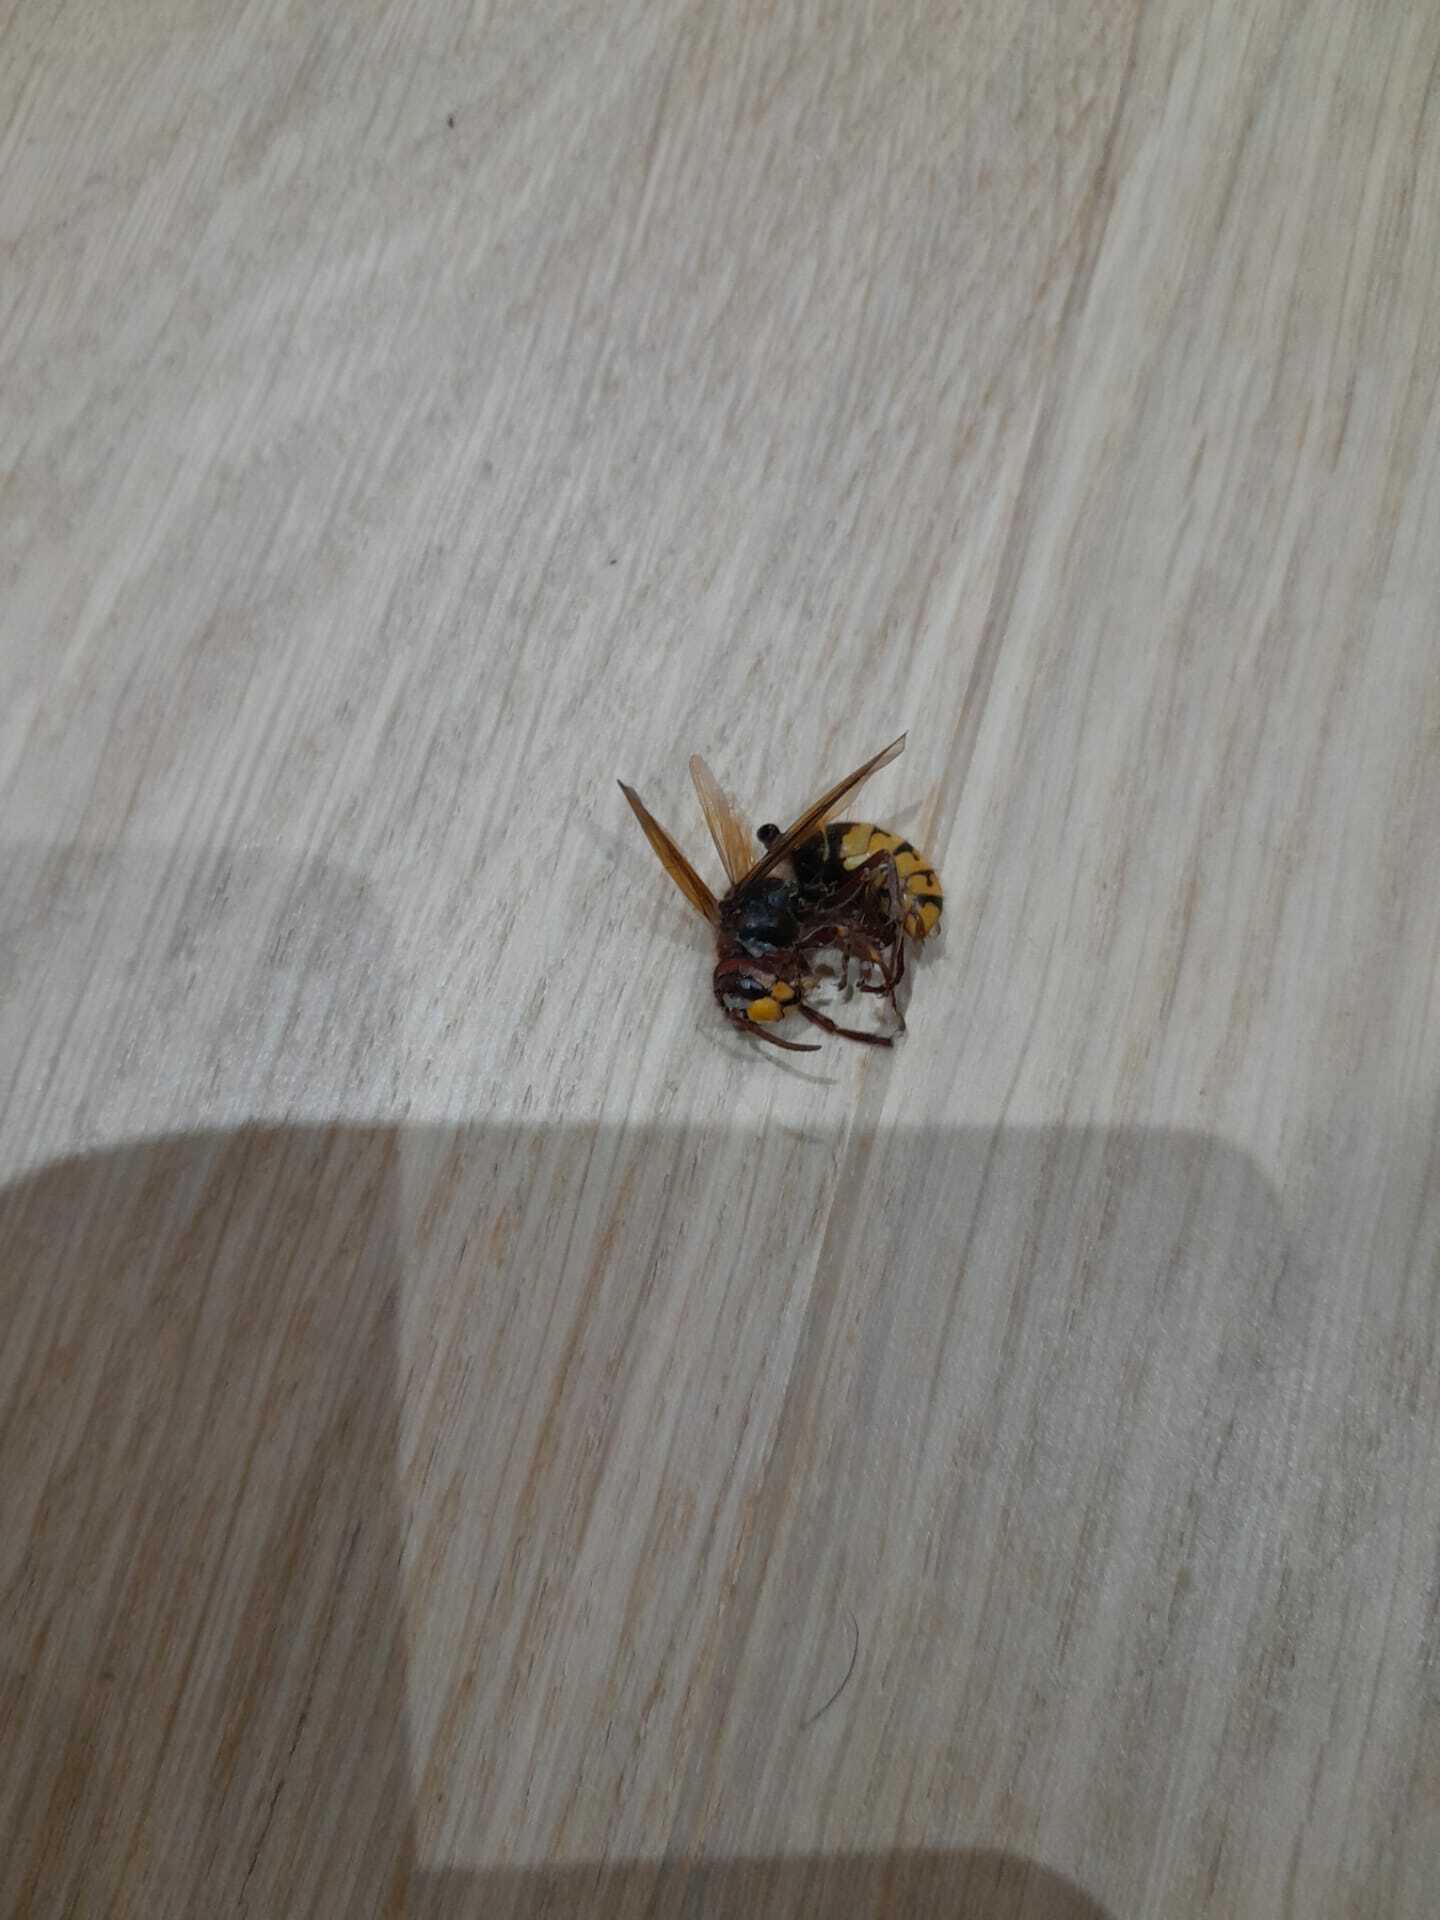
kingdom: Animalia
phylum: Arthropoda
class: Insecta
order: Hymenoptera
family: Vespidae
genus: Vespa
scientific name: Vespa crabro
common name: Hornet
